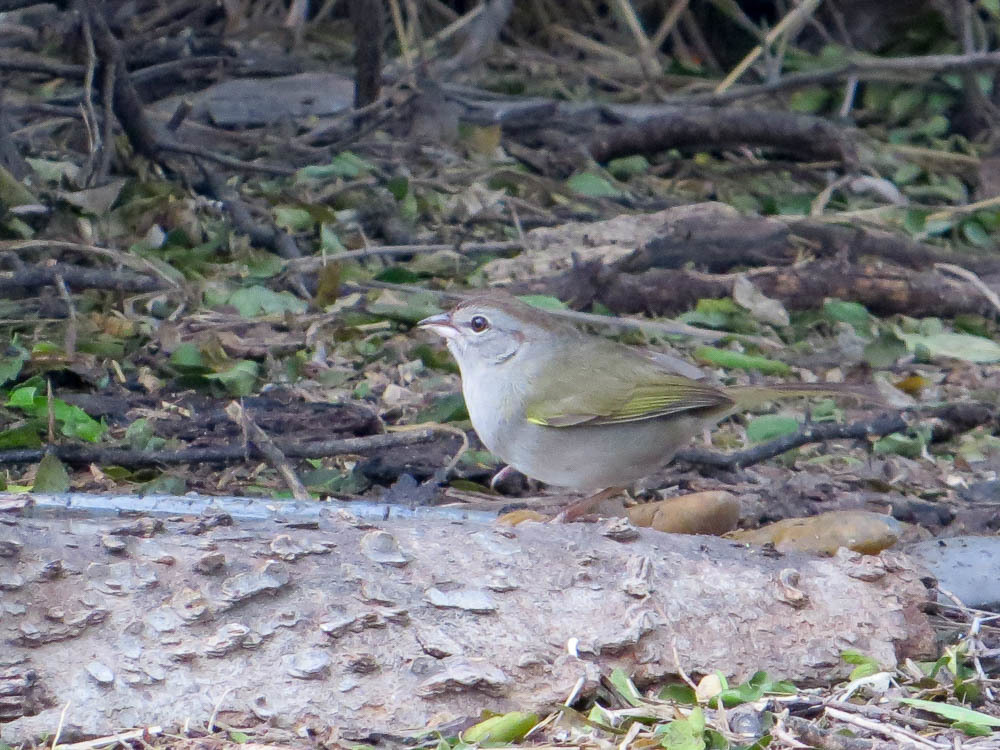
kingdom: Animalia
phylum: Chordata
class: Aves
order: Passeriformes
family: Passerellidae
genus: Arremonops
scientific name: Arremonops rufivirgatus
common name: Olive sparrow
